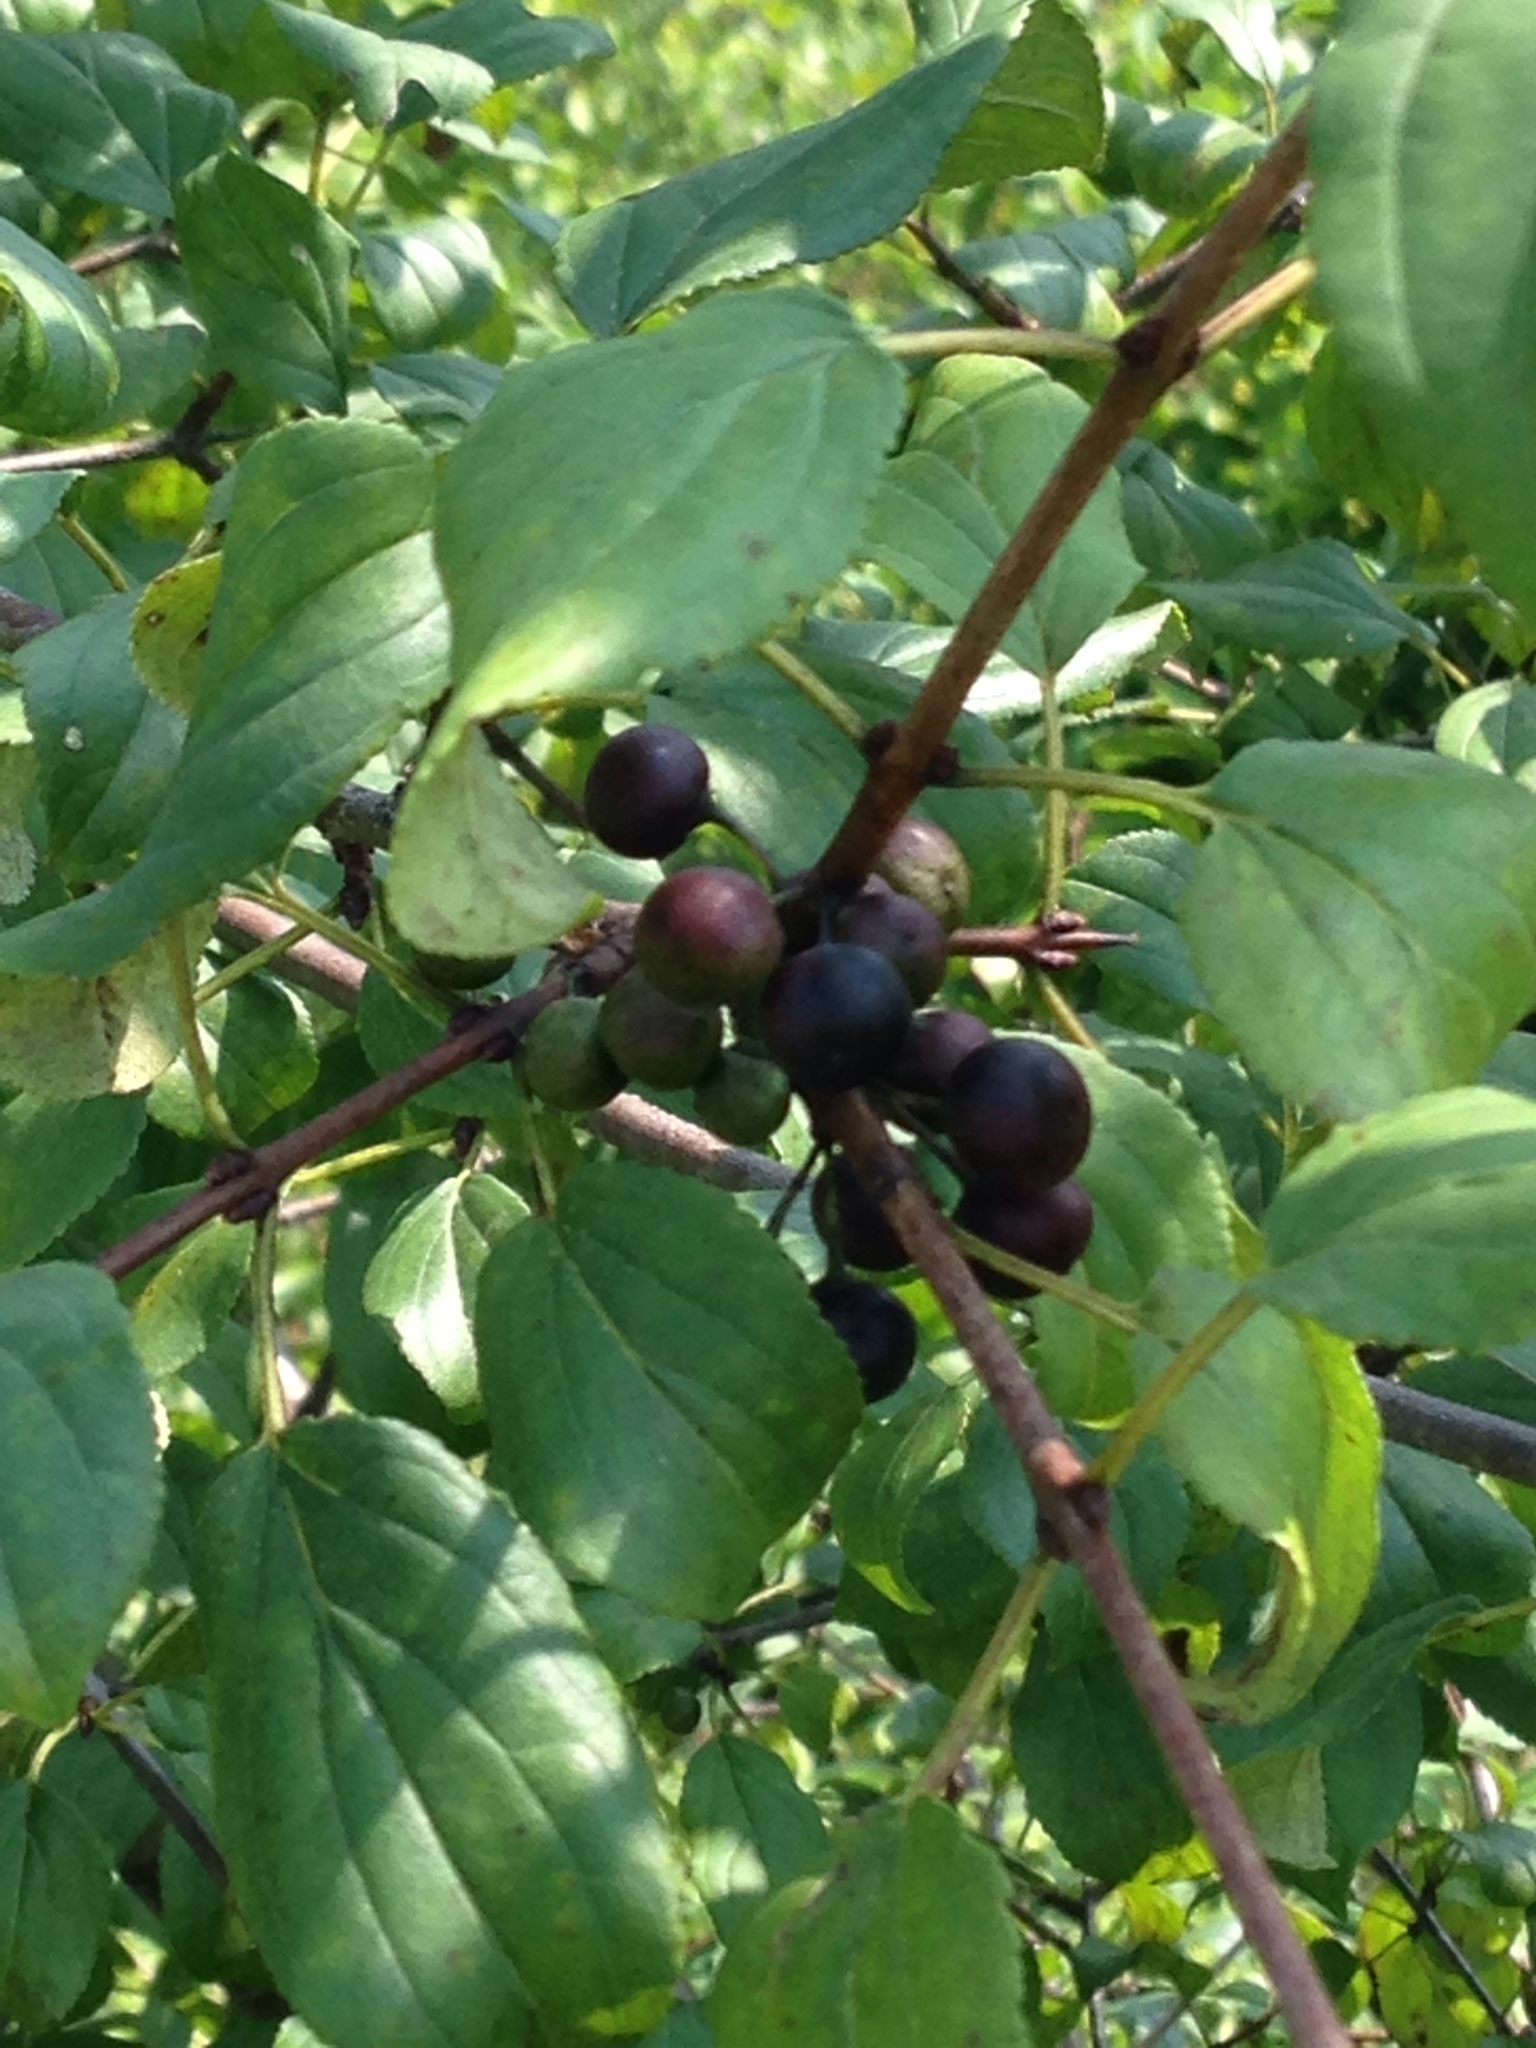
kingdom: Plantae
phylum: Tracheophyta
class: Magnoliopsida
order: Rosales
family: Rhamnaceae
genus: Rhamnus
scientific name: Rhamnus cathartica
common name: Common buckthorn
